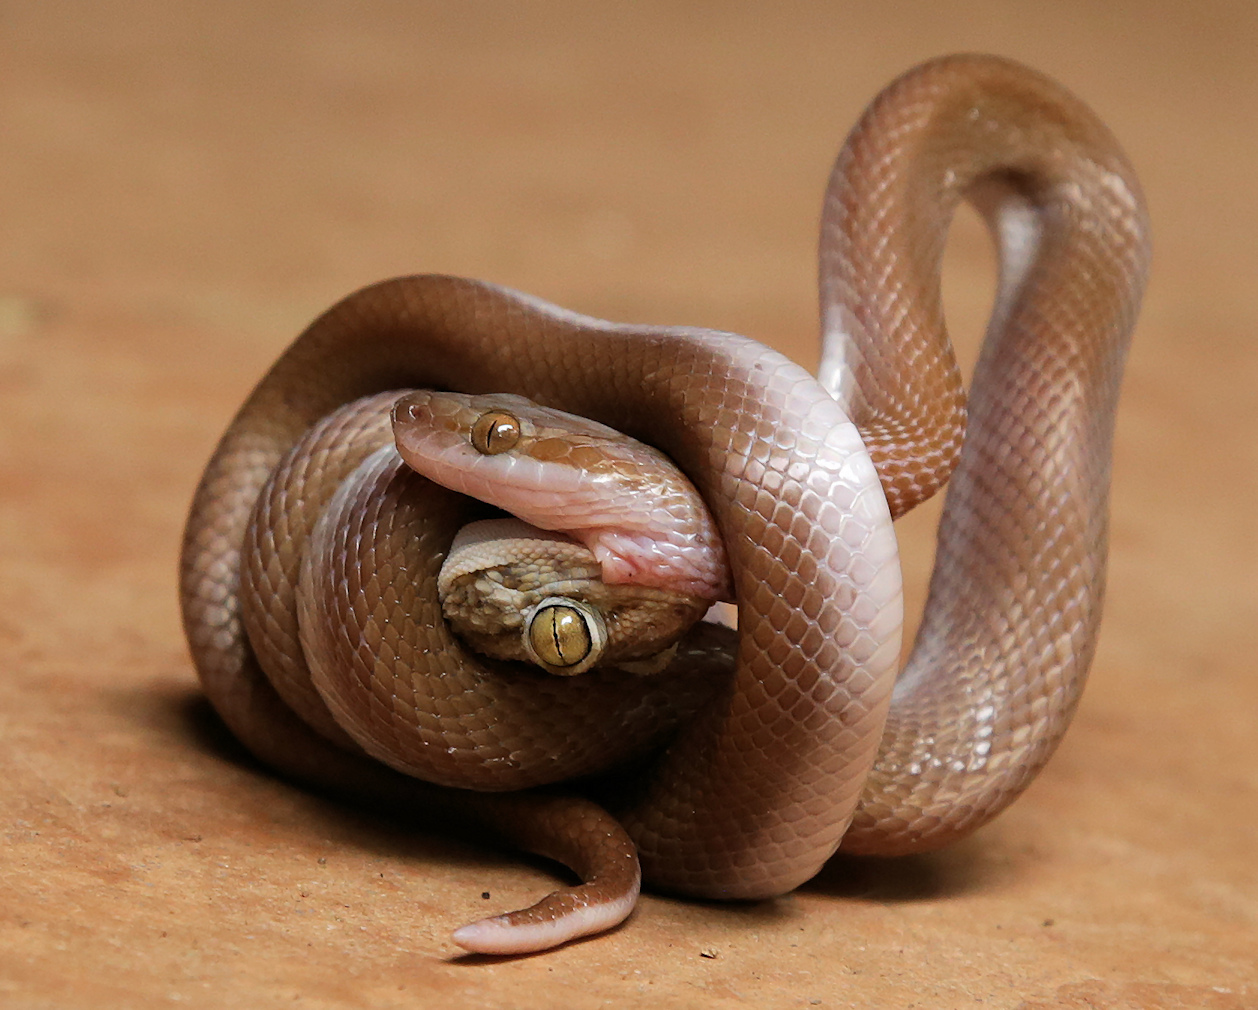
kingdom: Animalia
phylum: Chordata
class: Squamata
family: Lamprophiidae
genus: Boaedon
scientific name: Boaedon capensis
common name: Brown house snake
